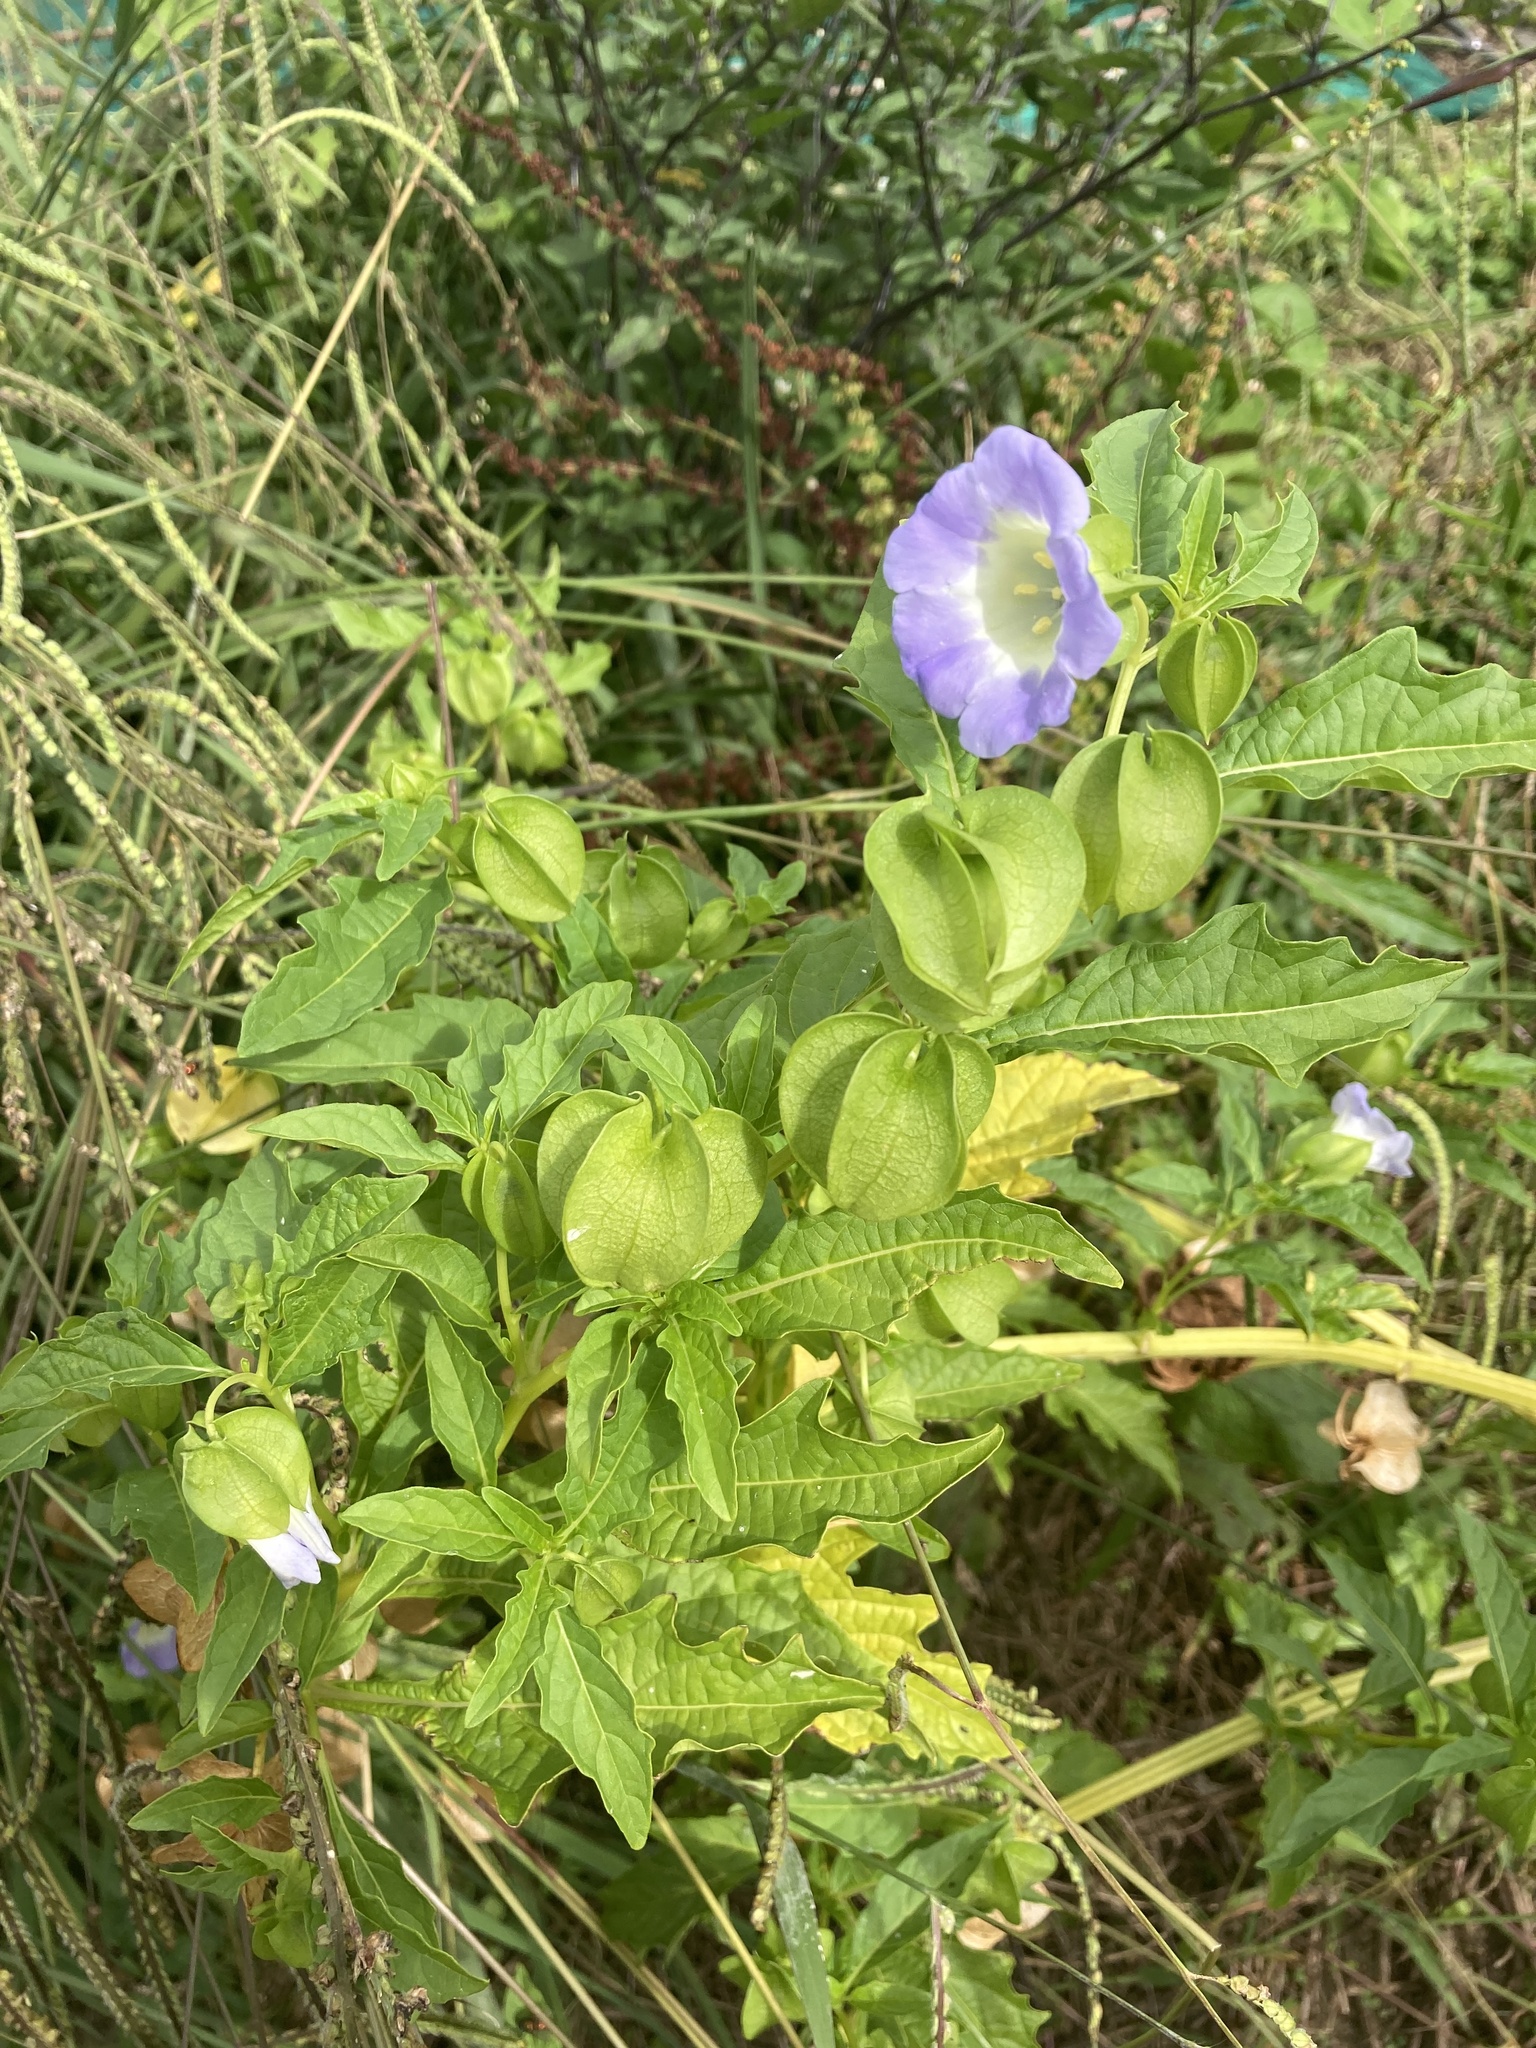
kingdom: Plantae
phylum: Tracheophyta
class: Magnoliopsida
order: Solanales
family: Solanaceae
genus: Nicandra
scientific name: Nicandra physalodes
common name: Apple-of-peru
